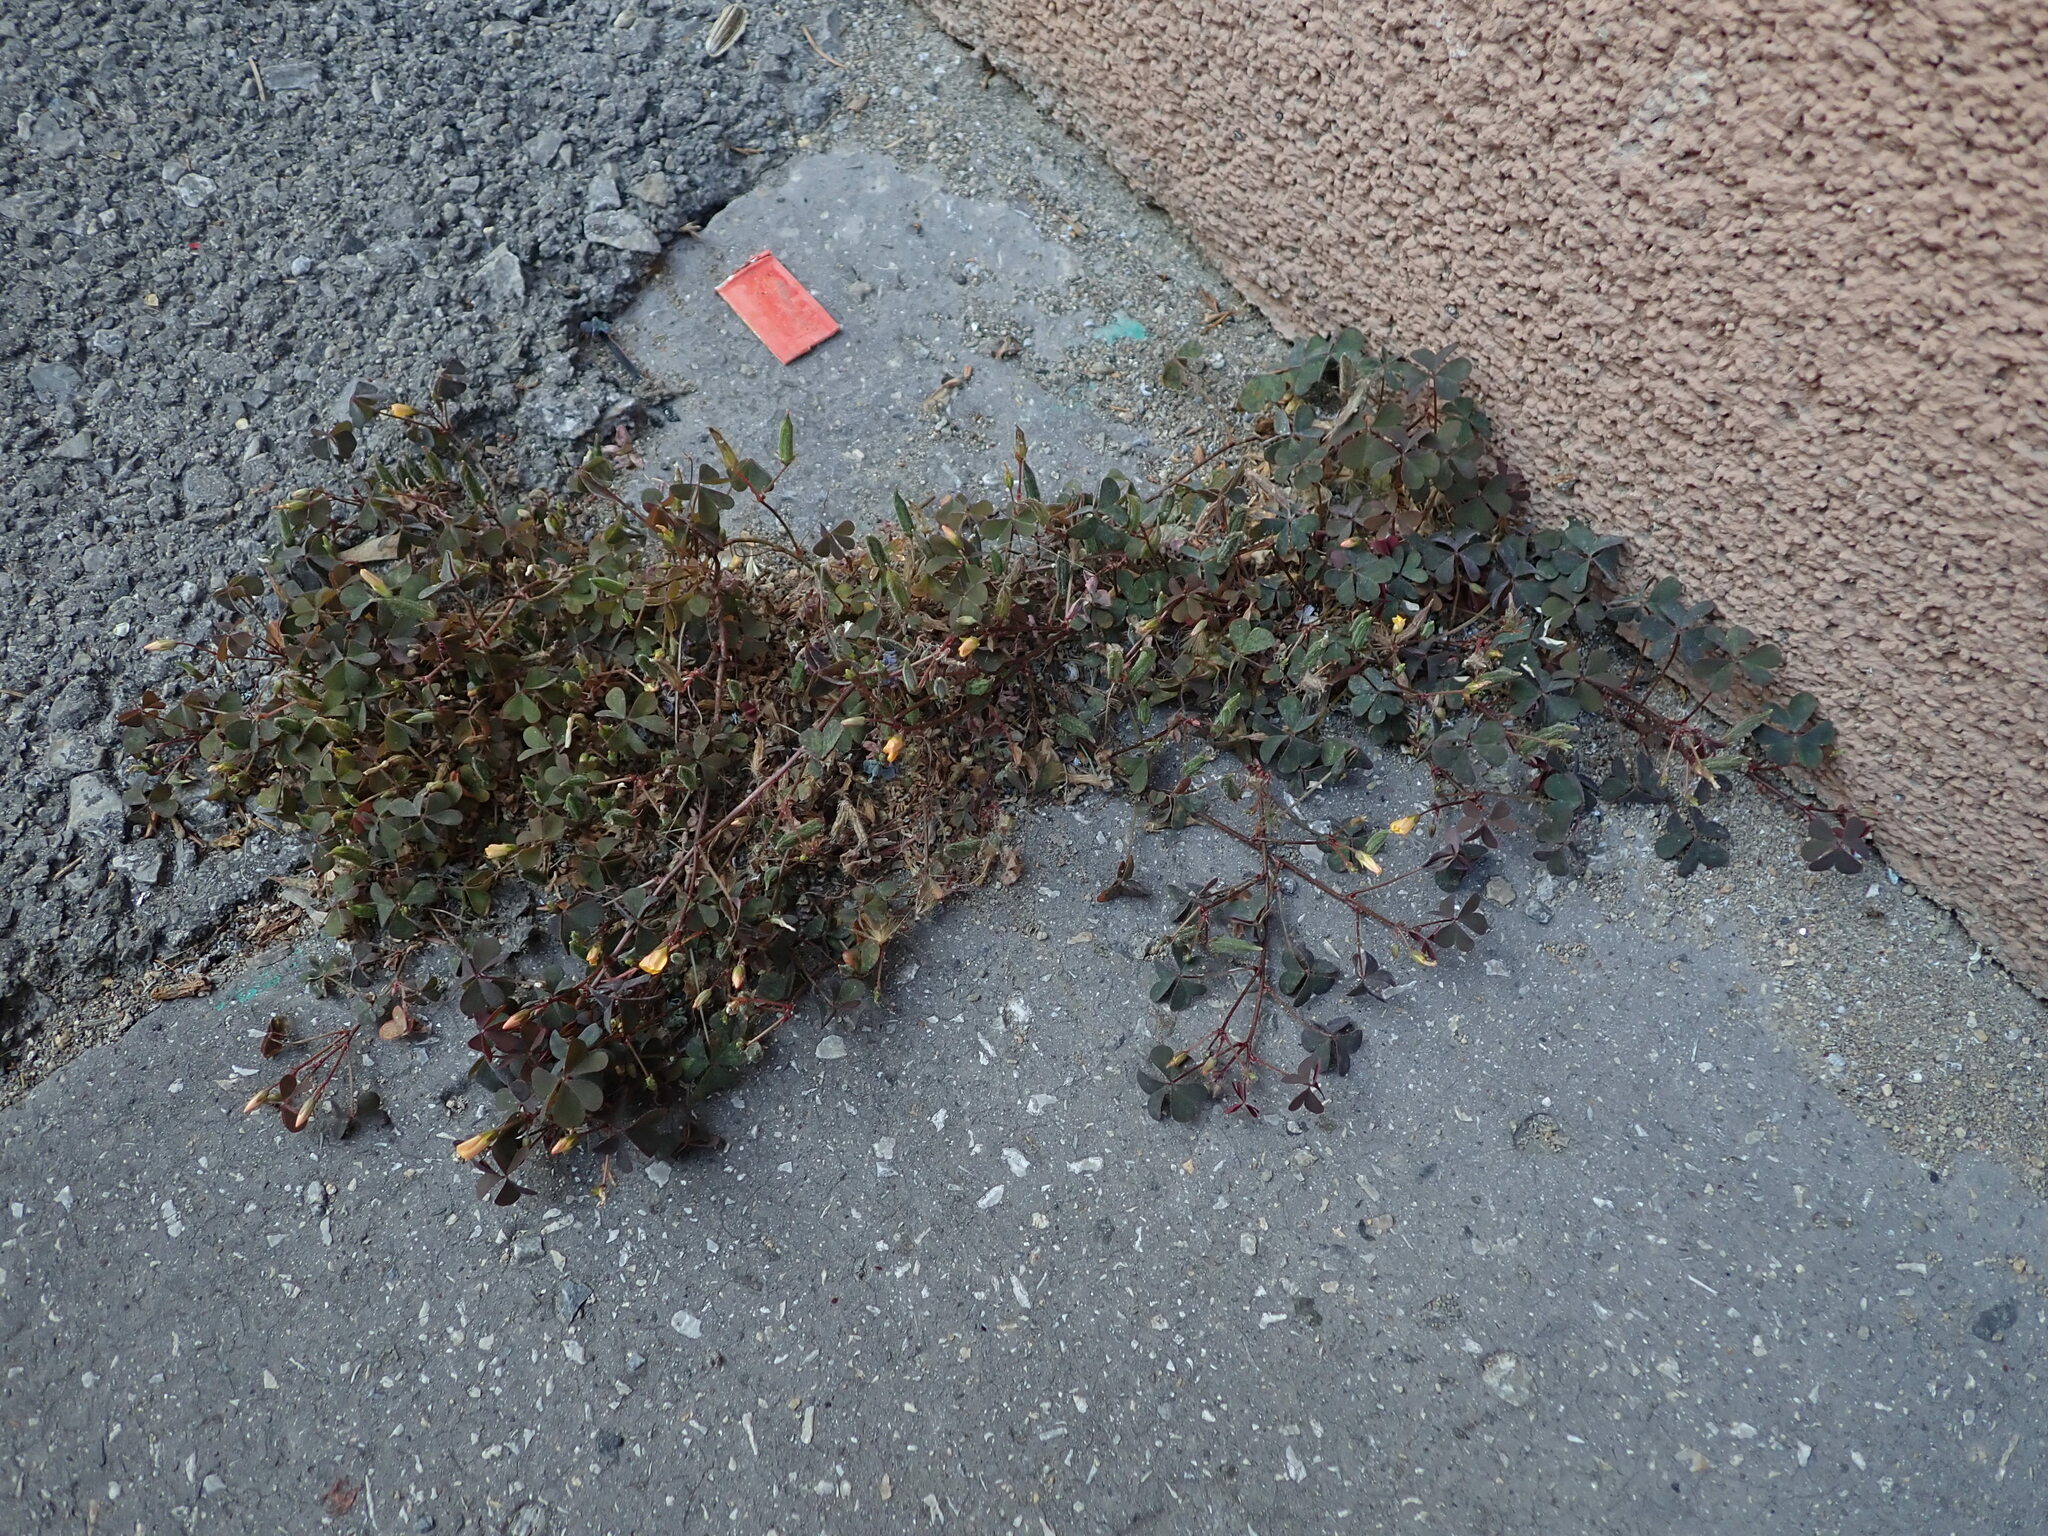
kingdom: Plantae
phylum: Tracheophyta
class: Magnoliopsida
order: Oxalidales
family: Oxalidaceae
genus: Oxalis
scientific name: Oxalis corniculata
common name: Procumbent yellow-sorrel
